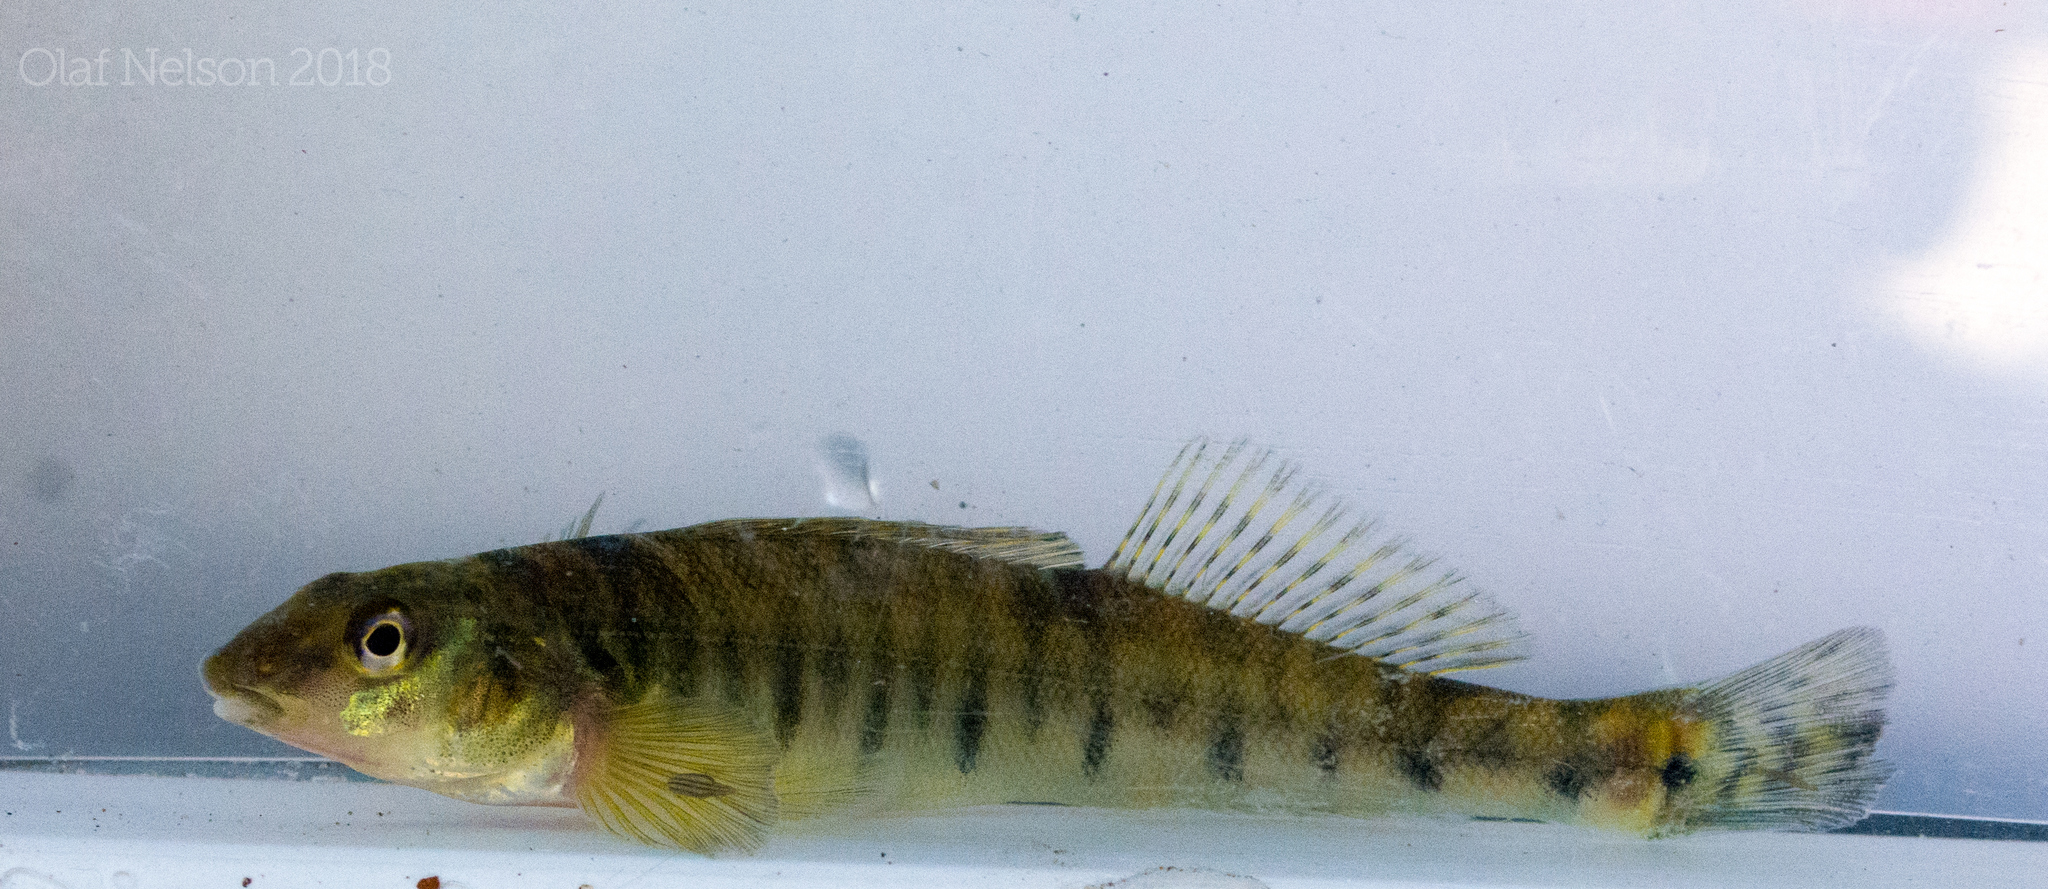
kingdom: Animalia
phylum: Chordata
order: Perciformes
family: Percidae
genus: Percina
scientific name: Percina caprodes
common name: Logperch
